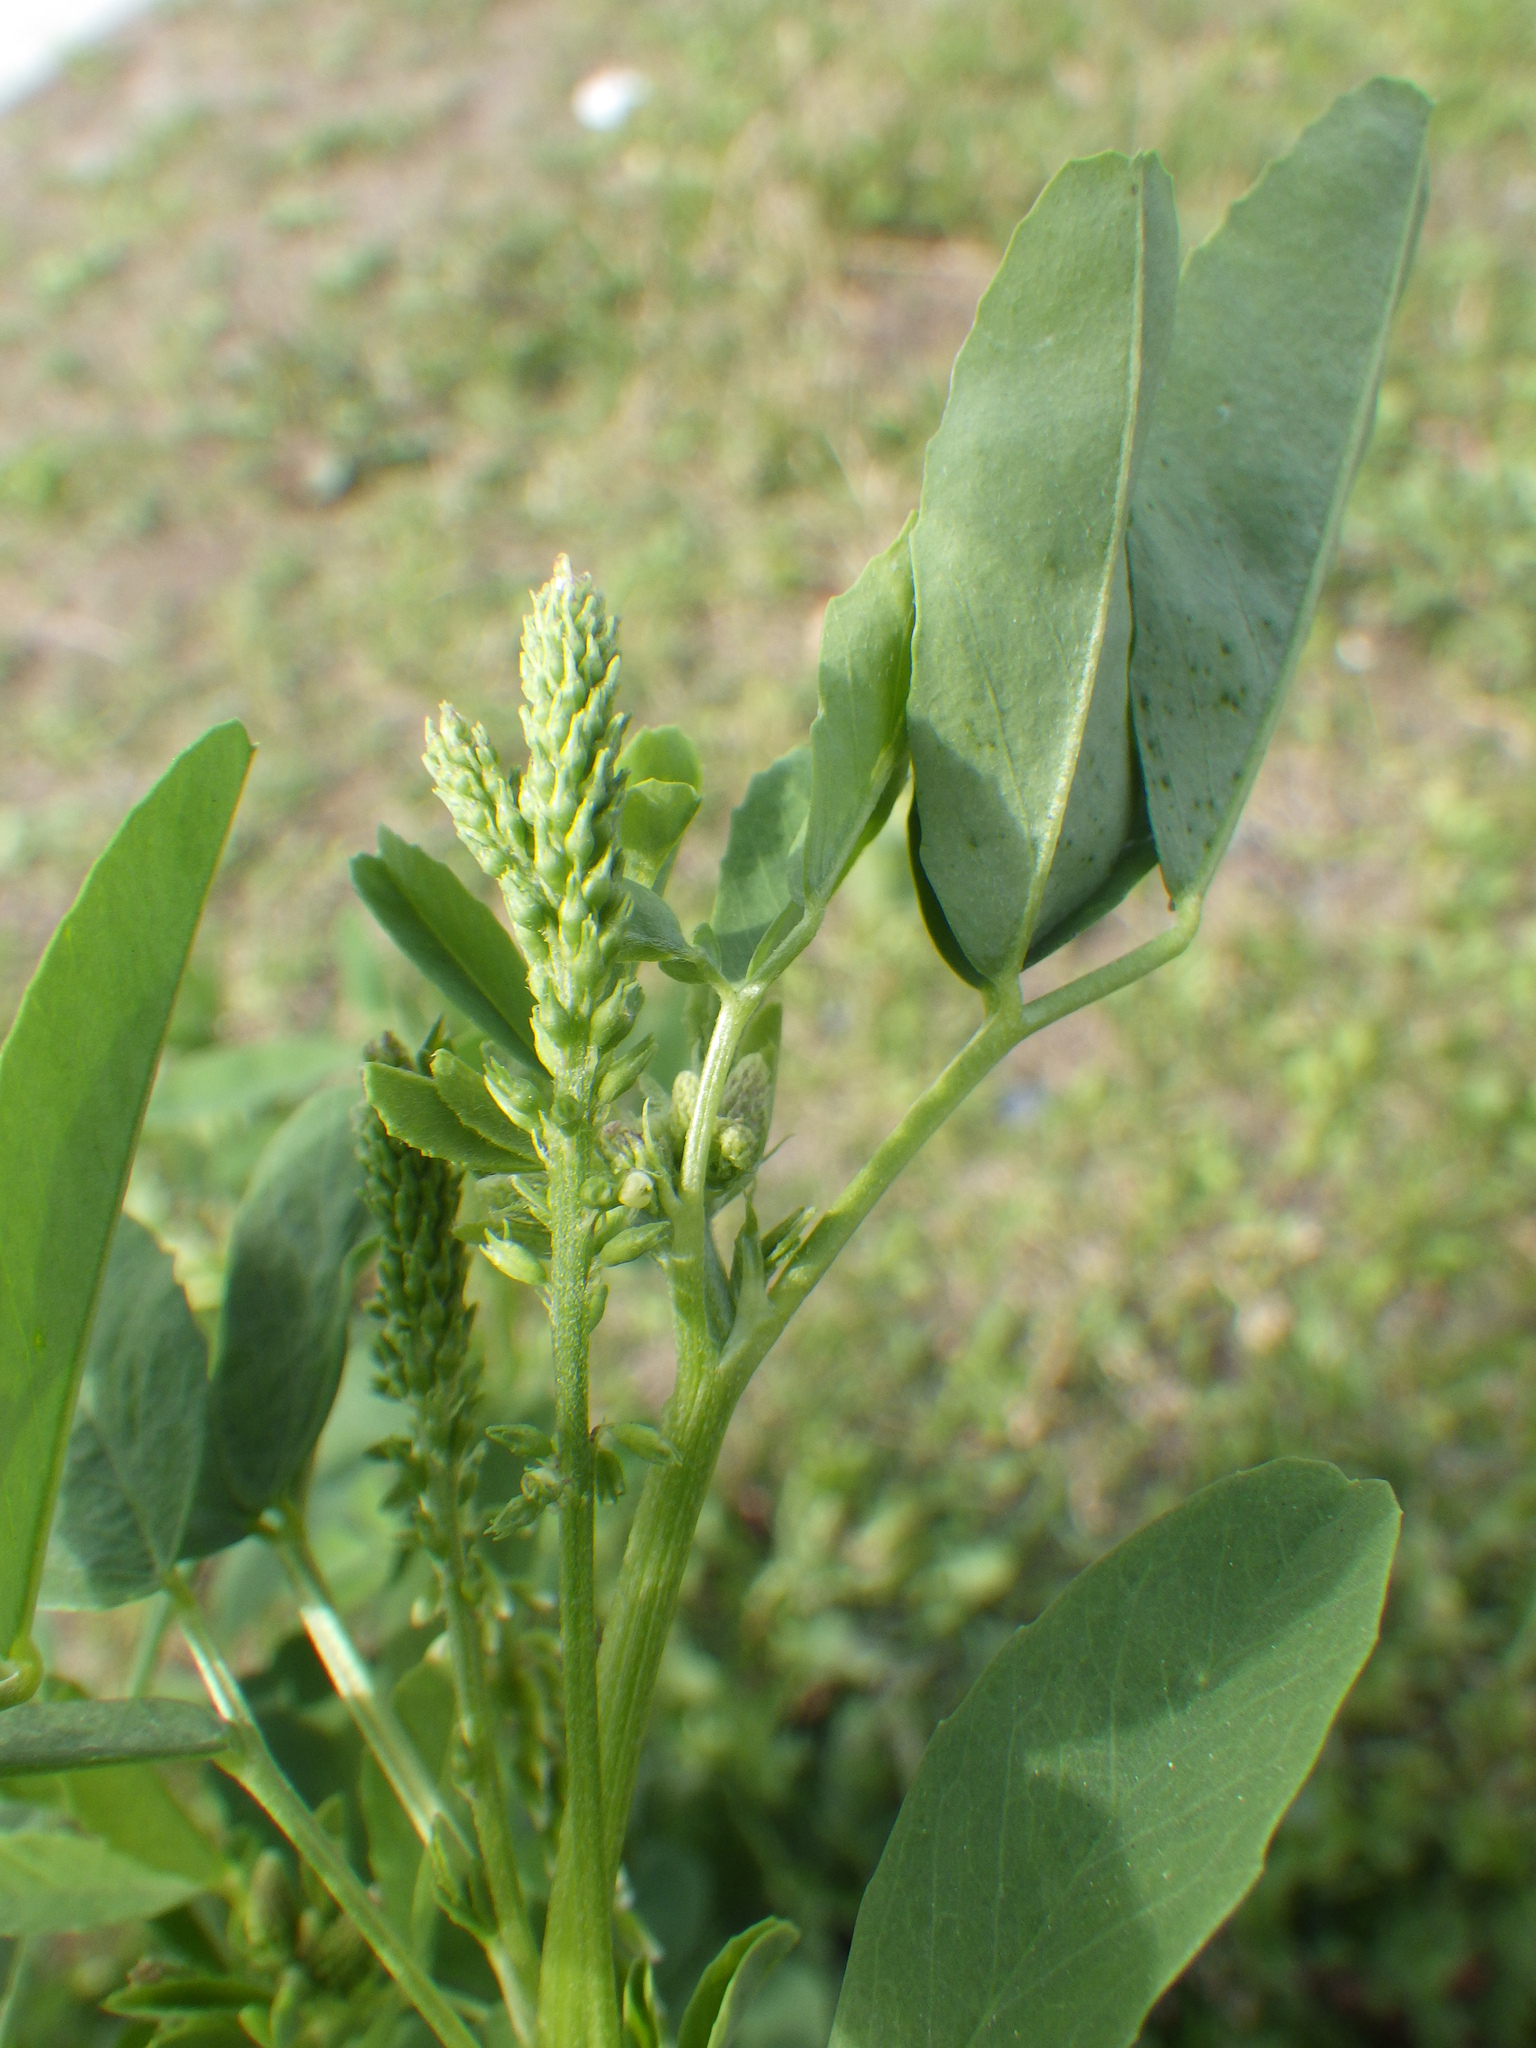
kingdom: Plantae
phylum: Tracheophyta
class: Magnoliopsida
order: Fabales
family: Fabaceae
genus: Melilotus
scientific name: Melilotus albus
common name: White melilot
